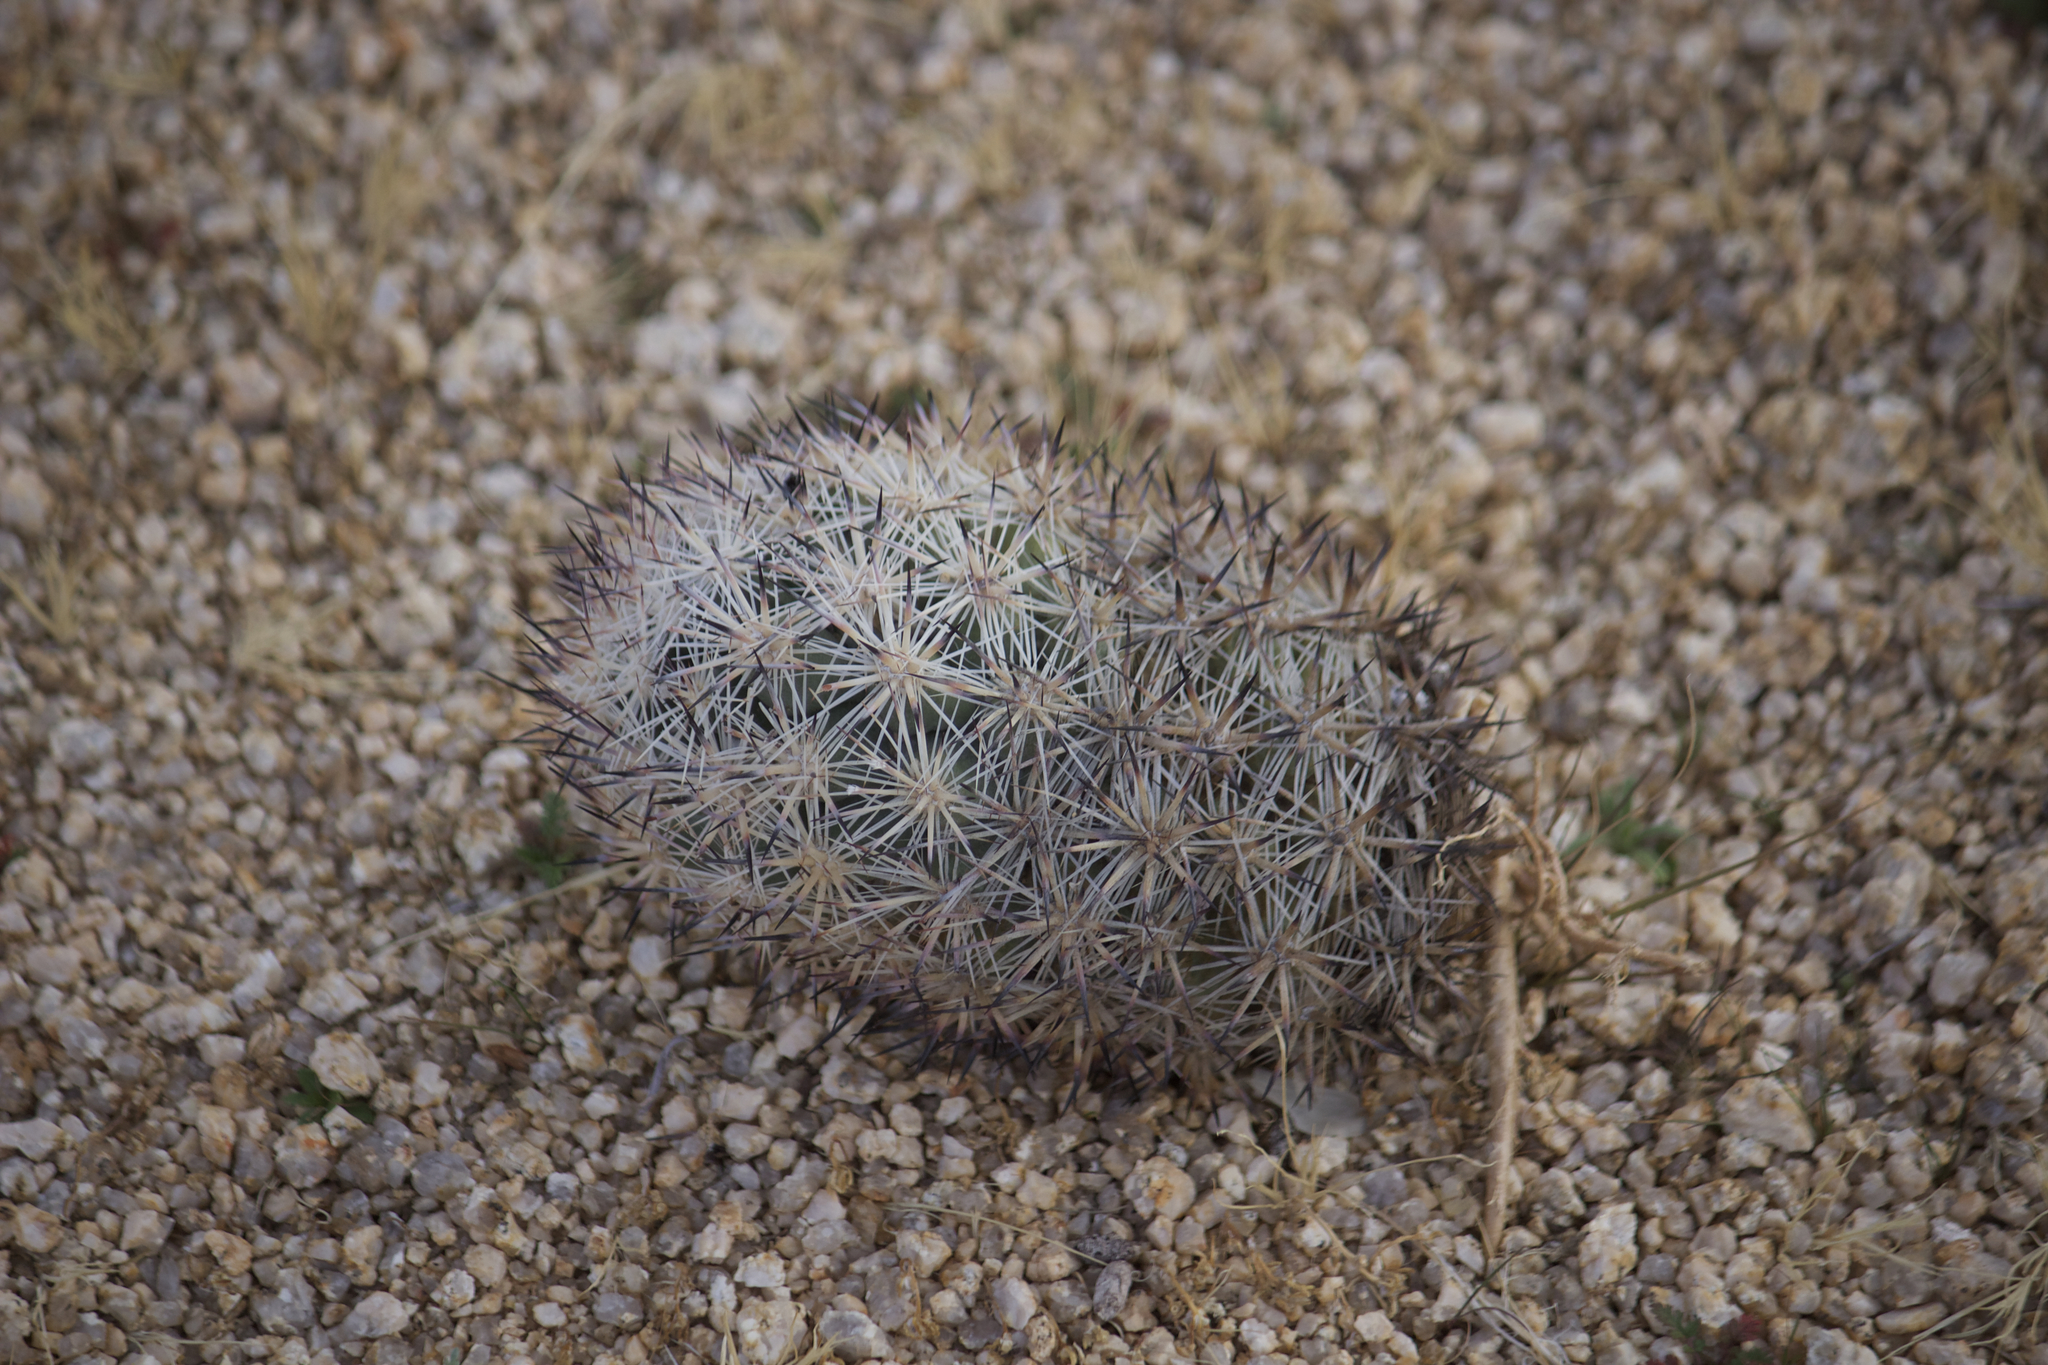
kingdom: Plantae
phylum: Tracheophyta
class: Magnoliopsida
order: Caryophyllales
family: Cactaceae
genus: Pelecyphora
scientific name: Pelecyphora alversonii
